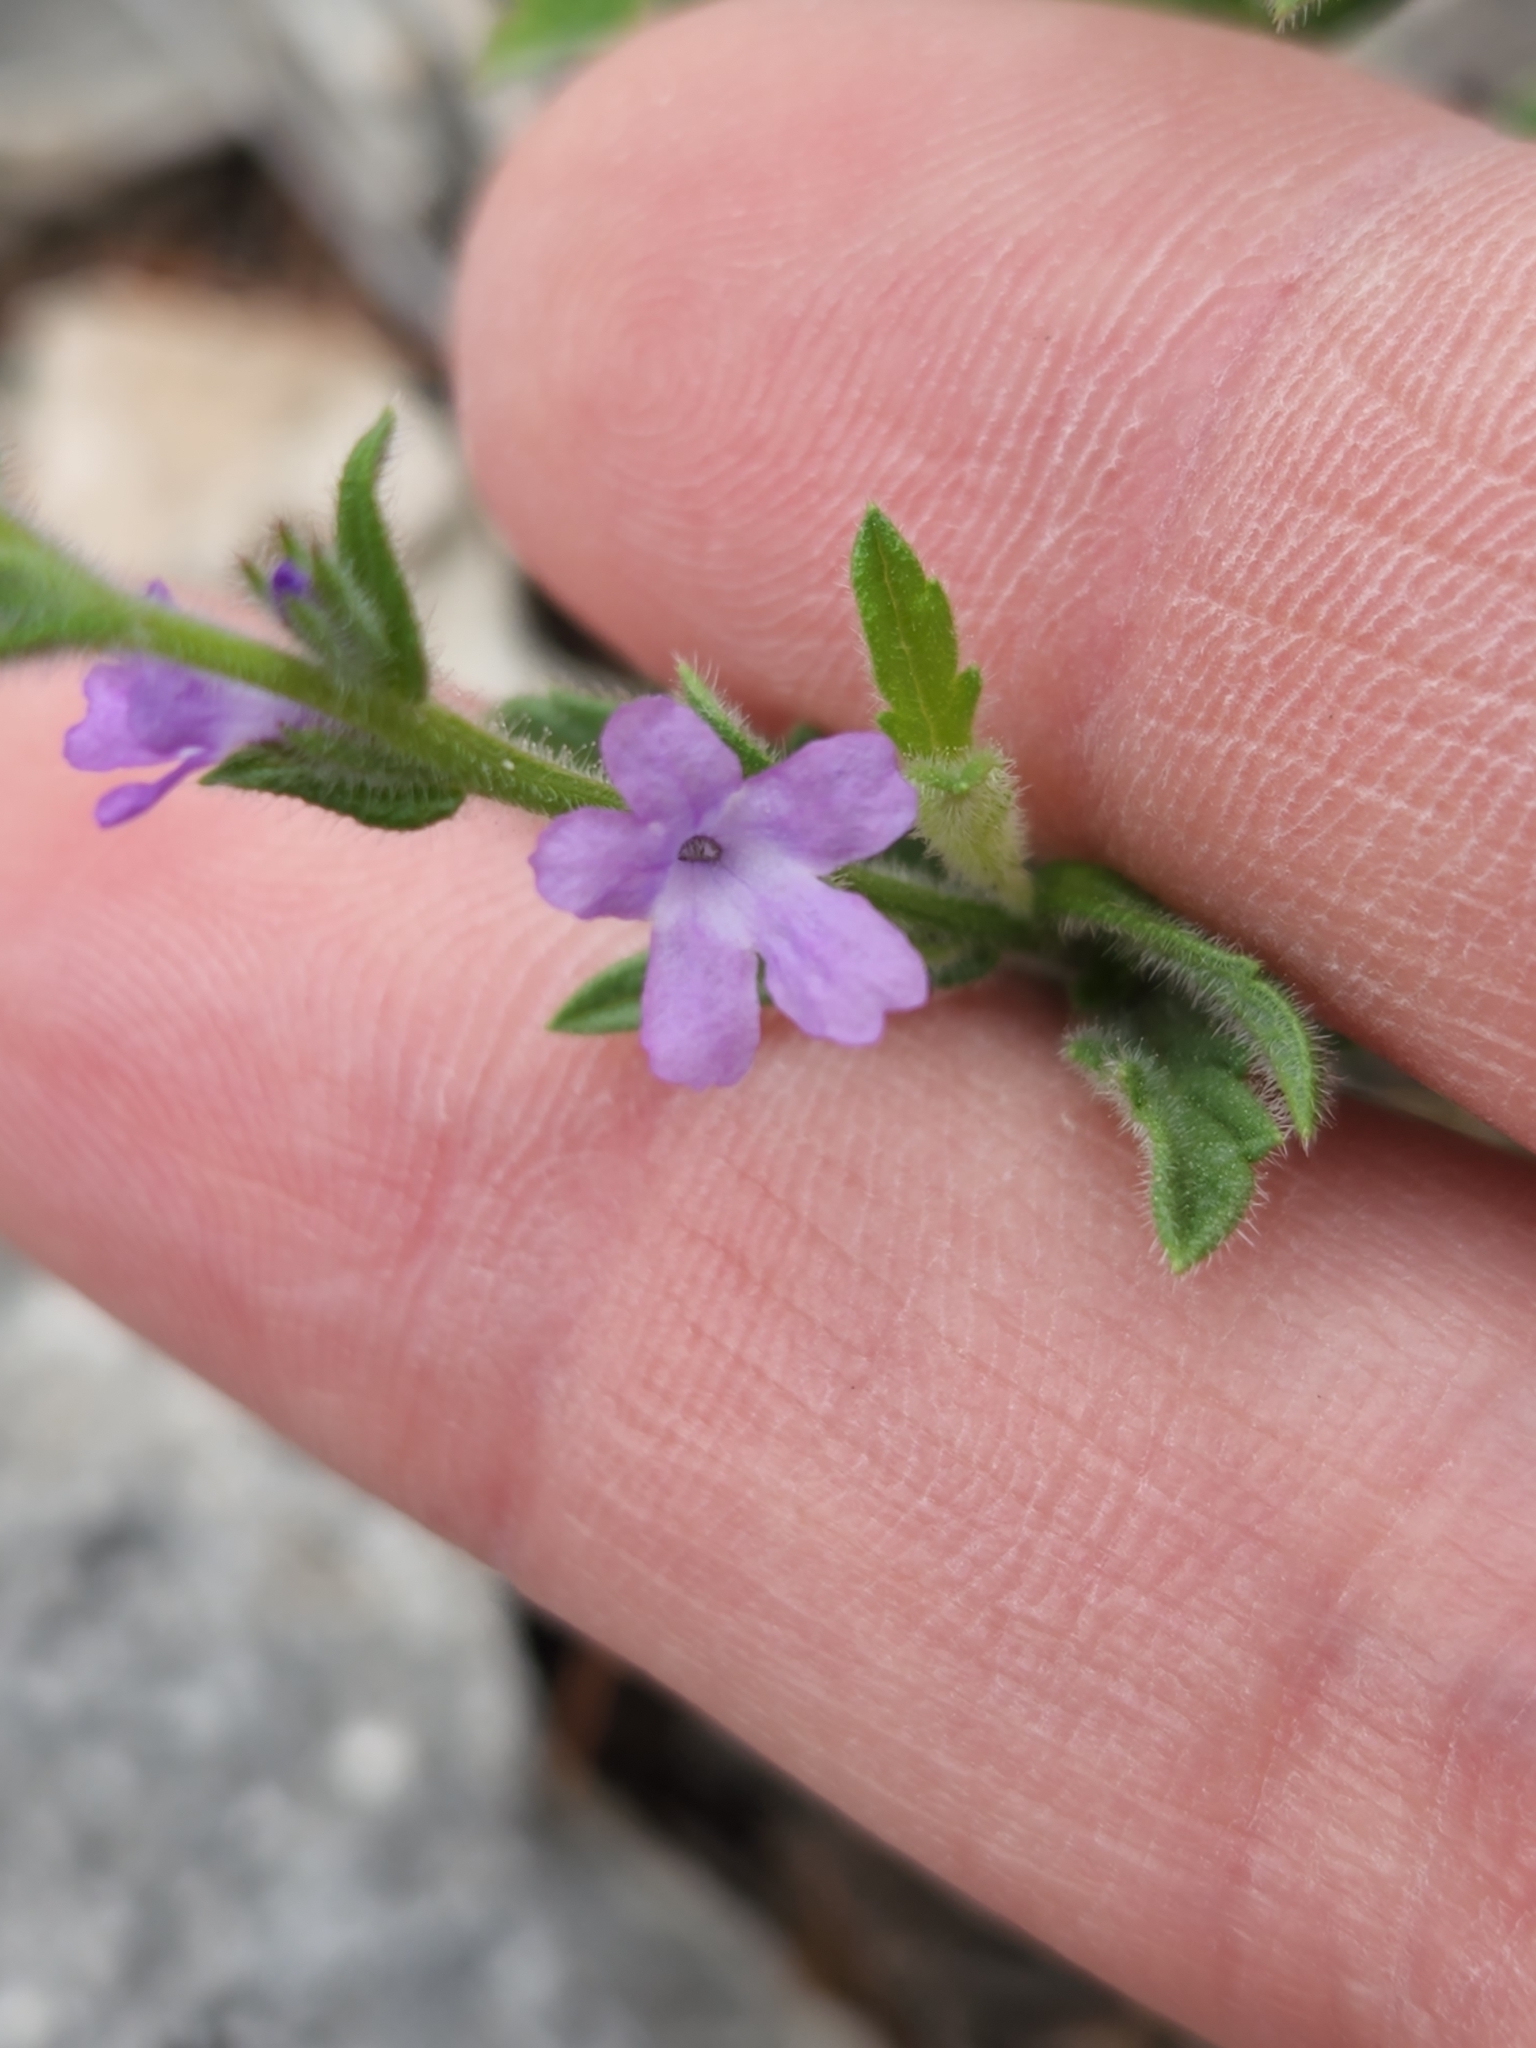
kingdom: Plantae
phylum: Tracheophyta
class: Magnoliopsida
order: Lamiales
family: Verbenaceae
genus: Verbena
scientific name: Verbena canescens
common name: Gray vervain
